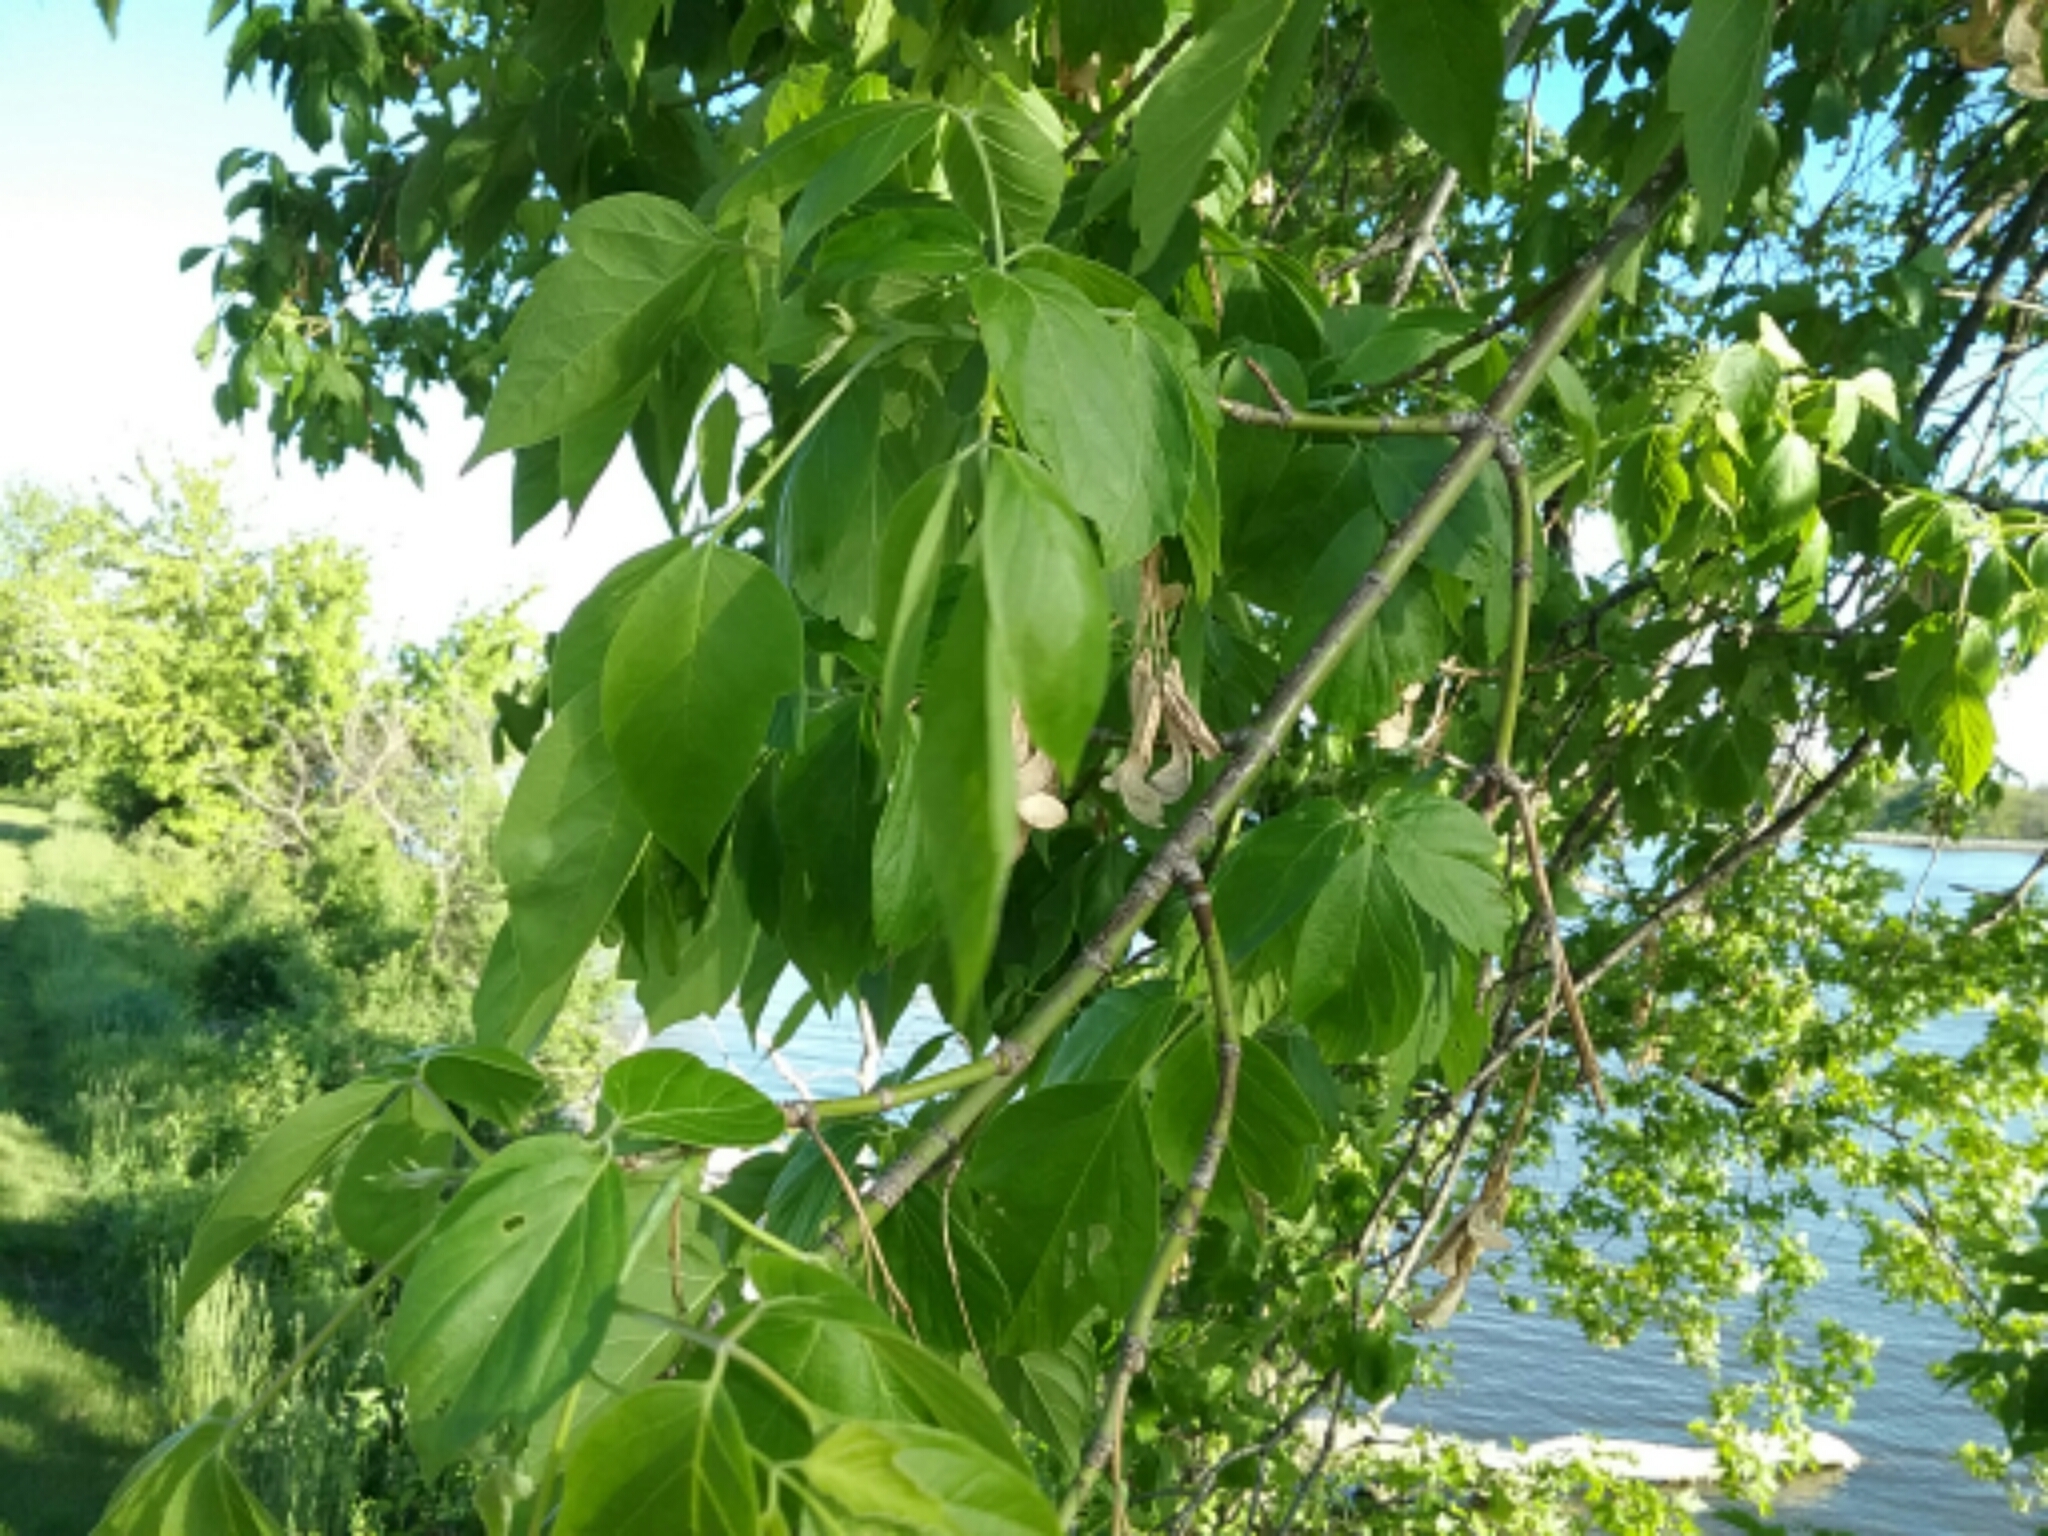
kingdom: Plantae
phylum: Tracheophyta
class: Magnoliopsida
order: Sapindales
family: Sapindaceae
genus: Acer
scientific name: Acer negundo
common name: Ashleaf maple
